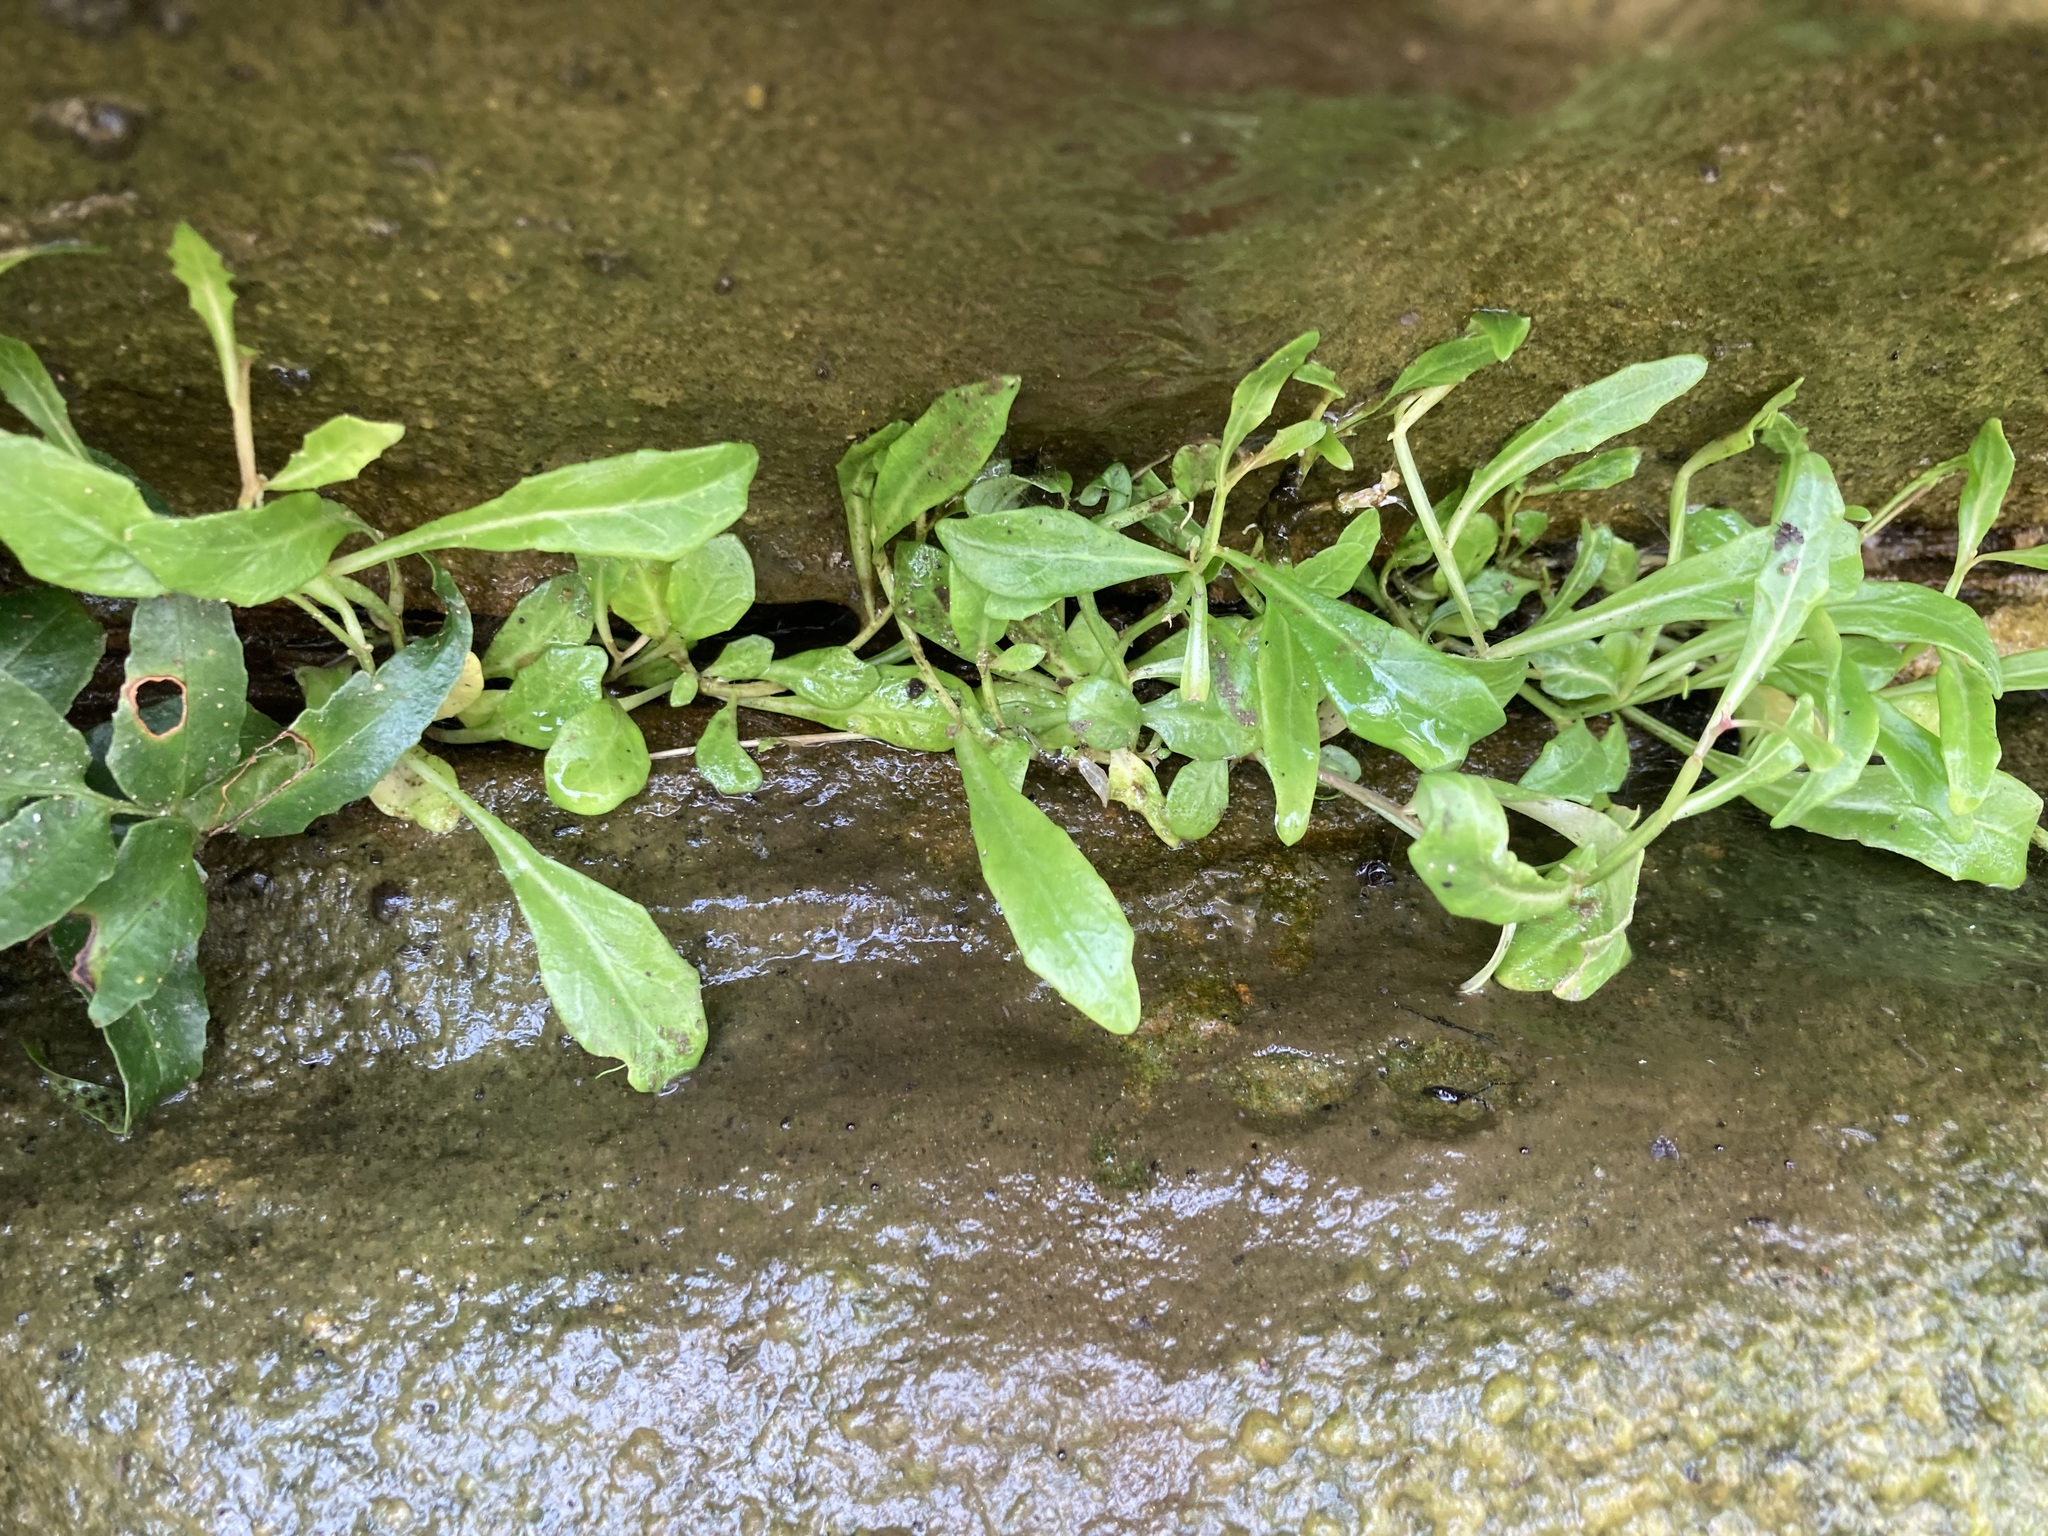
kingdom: Plantae
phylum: Tracheophyta
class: Magnoliopsida
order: Asterales
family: Campanulaceae
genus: Lobelia
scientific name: Lobelia anceps
